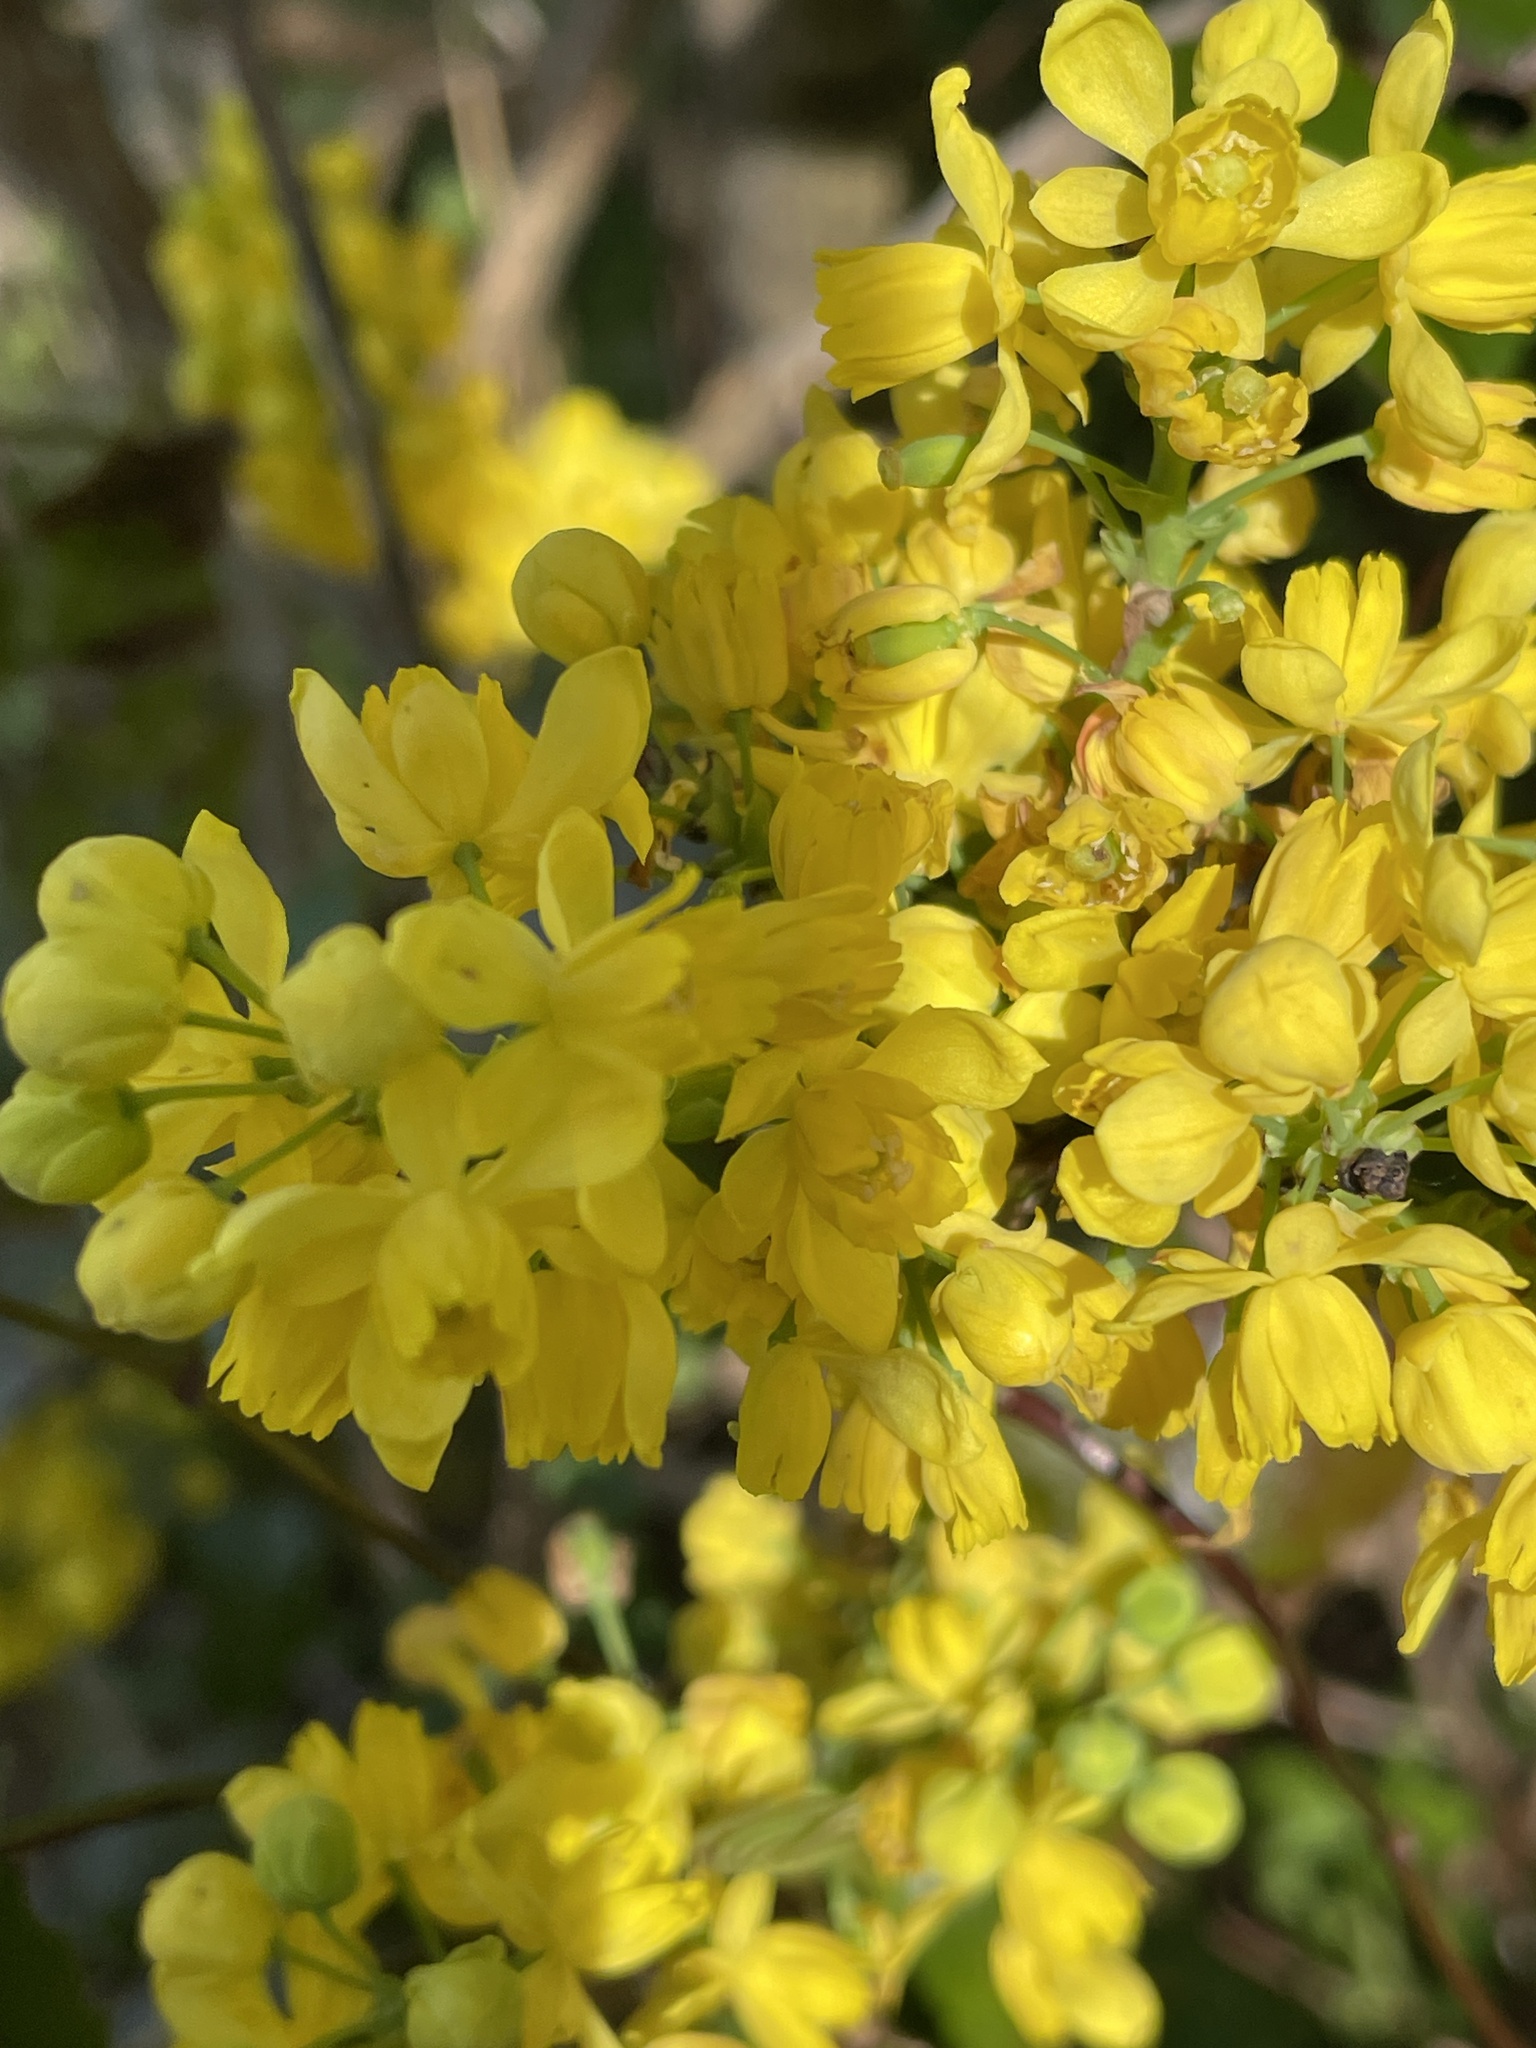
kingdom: Plantae
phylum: Tracheophyta
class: Magnoliopsida
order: Ranunculales
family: Berberidaceae
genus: Mahonia
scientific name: Mahonia aquifolium
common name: Oregon-grape
